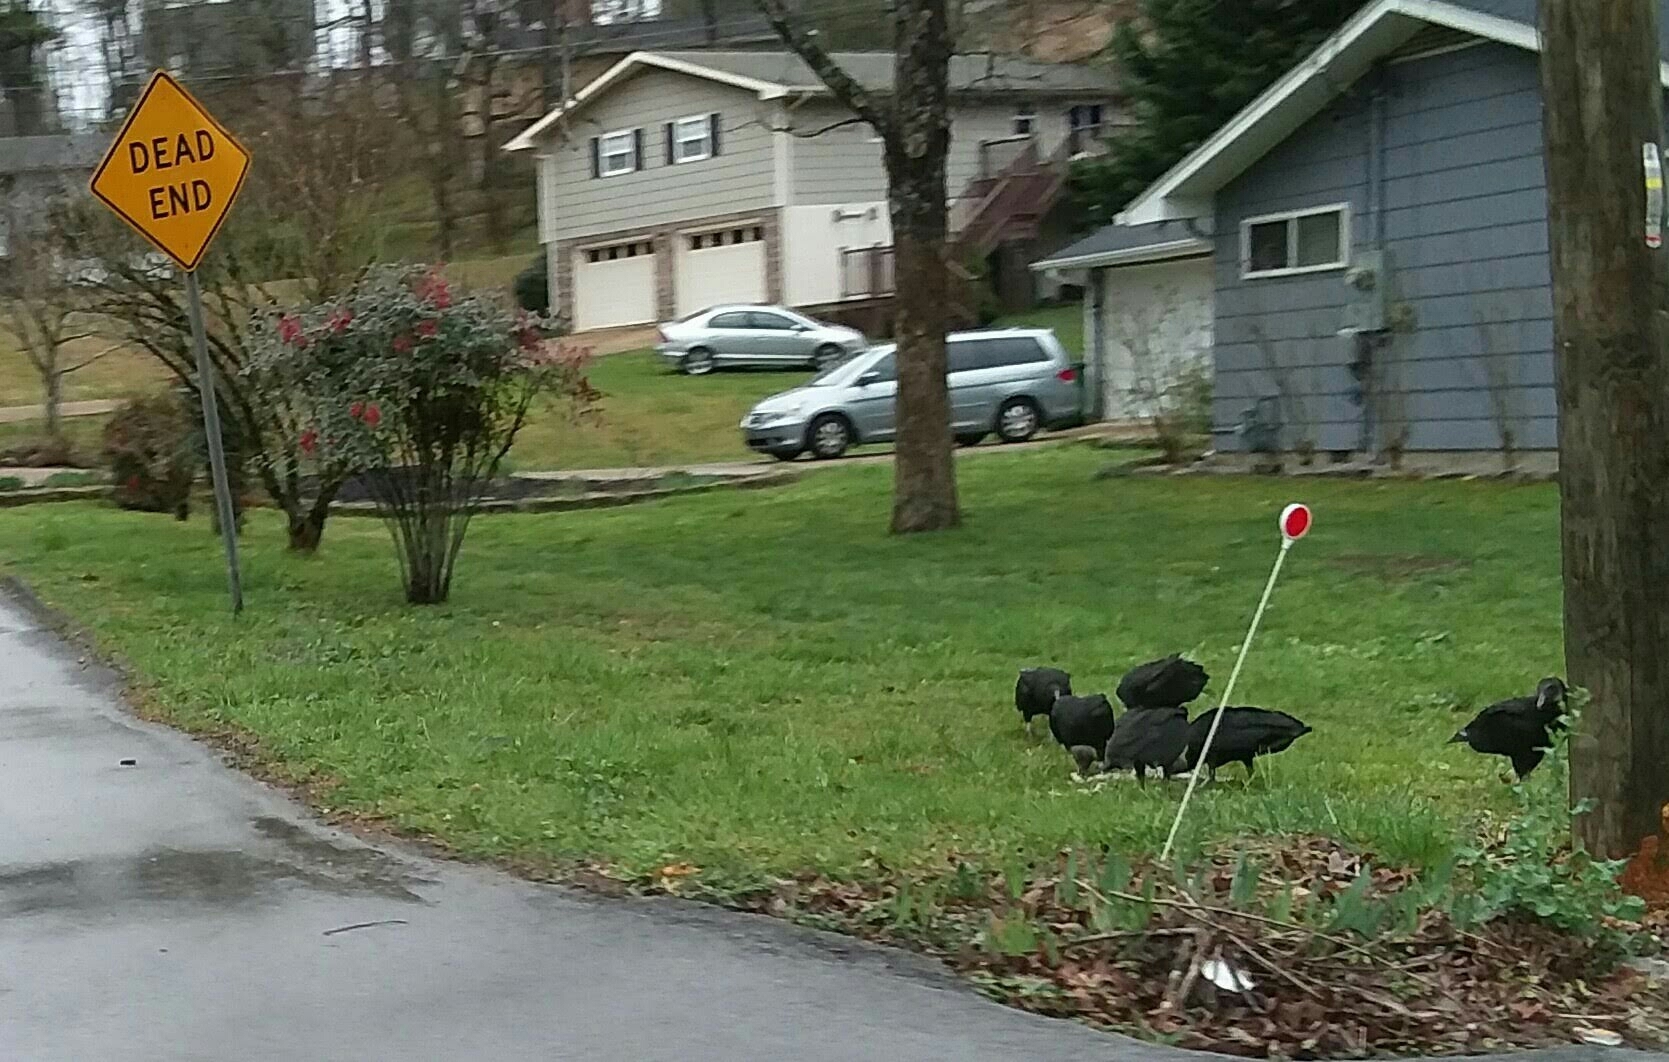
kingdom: Animalia
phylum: Chordata
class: Aves
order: Accipitriformes
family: Cathartidae
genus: Coragyps
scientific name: Coragyps atratus
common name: Black vulture
